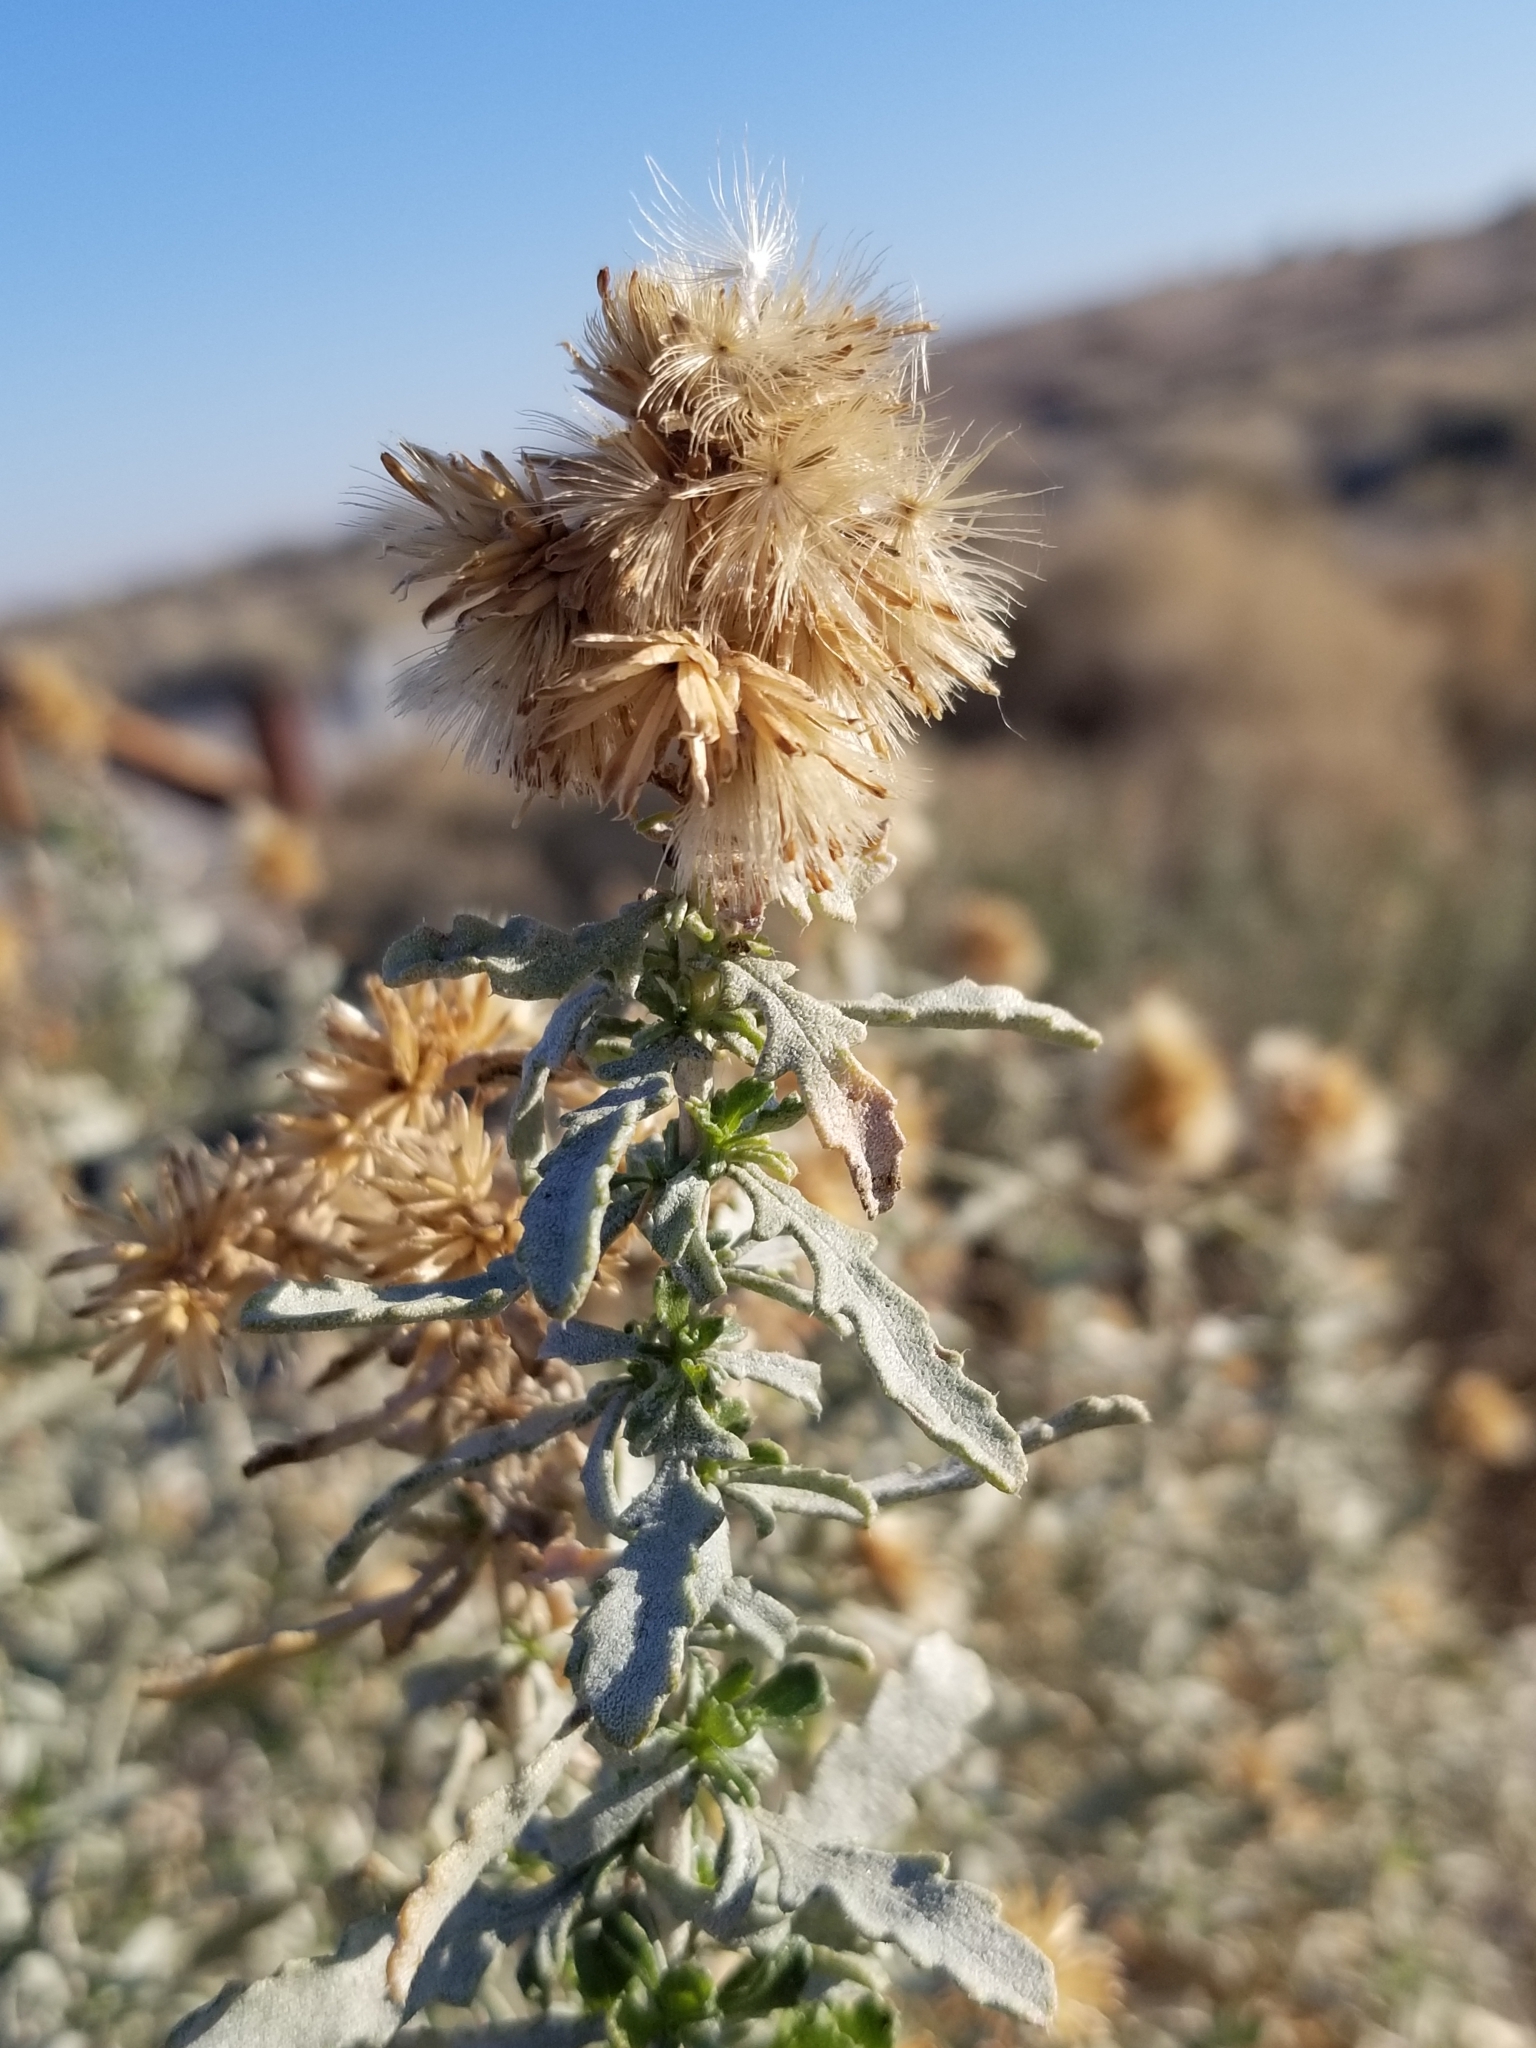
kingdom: Plantae
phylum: Tracheophyta
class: Magnoliopsida
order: Asterales
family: Asteraceae
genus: Isocoma
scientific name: Isocoma acradenia
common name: Alkali jimmyweed
